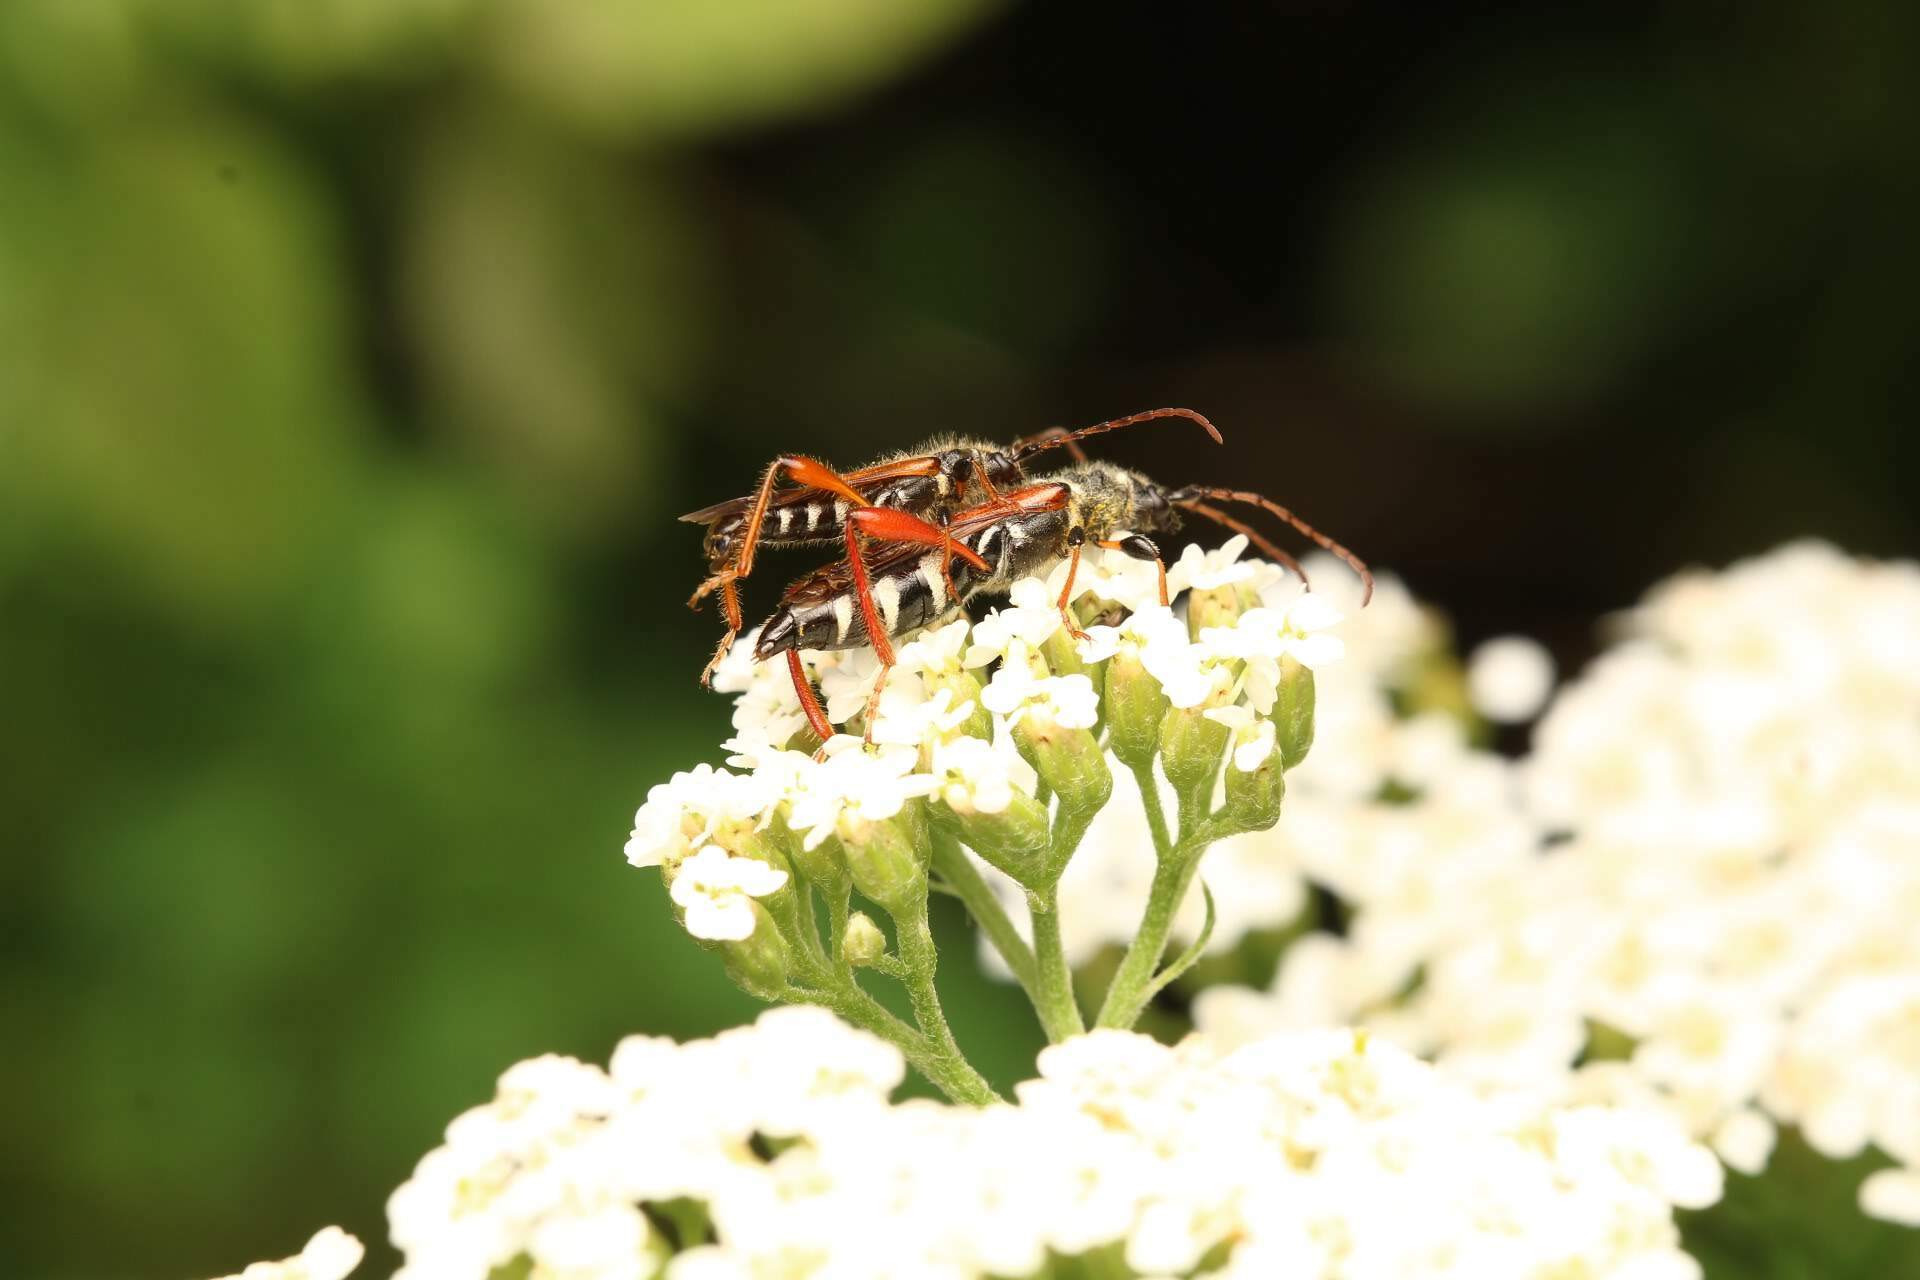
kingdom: Animalia
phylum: Arthropoda
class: Insecta
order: Coleoptera
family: Cerambycidae
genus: Stenopterus
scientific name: Stenopterus rufus
